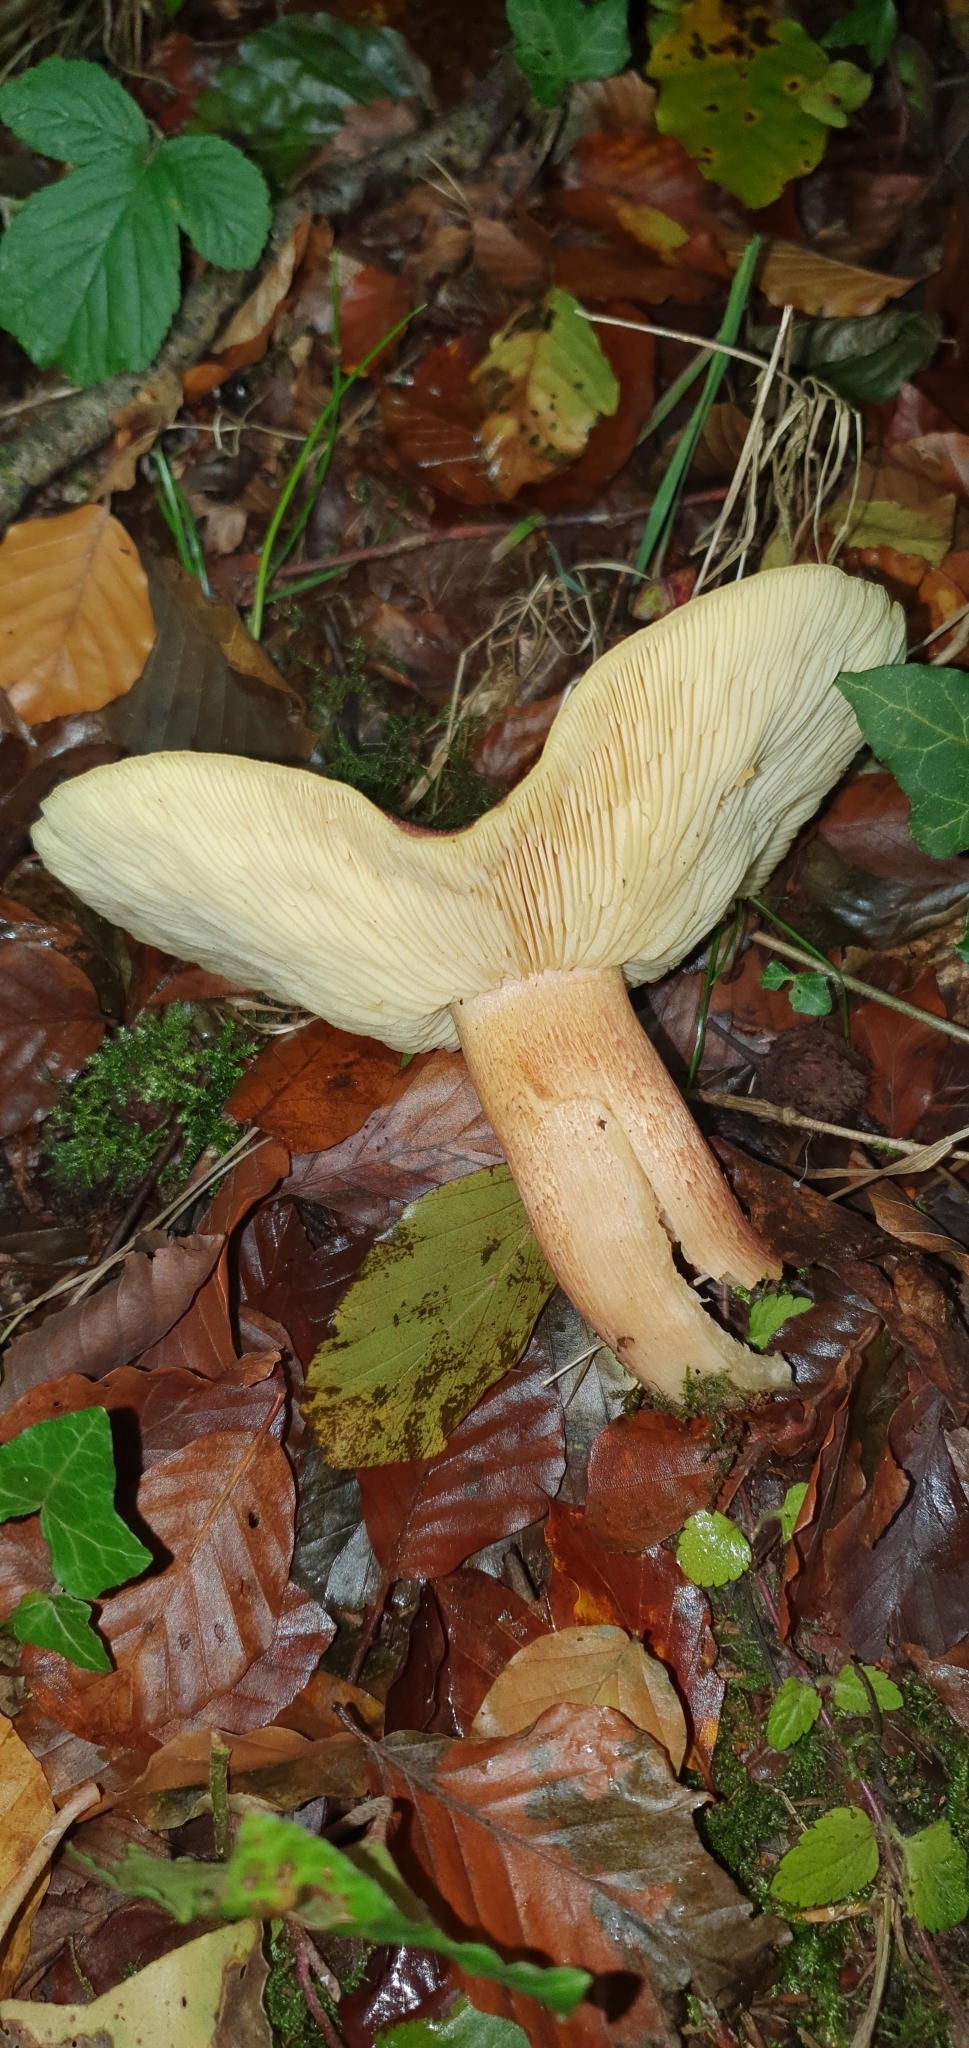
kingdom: Fungi
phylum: Basidiomycota
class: Agaricomycetes
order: Agaricales
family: Tricholomataceae
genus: Tricholomopsis
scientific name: Tricholomopsis rutilans
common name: Plums and custard
